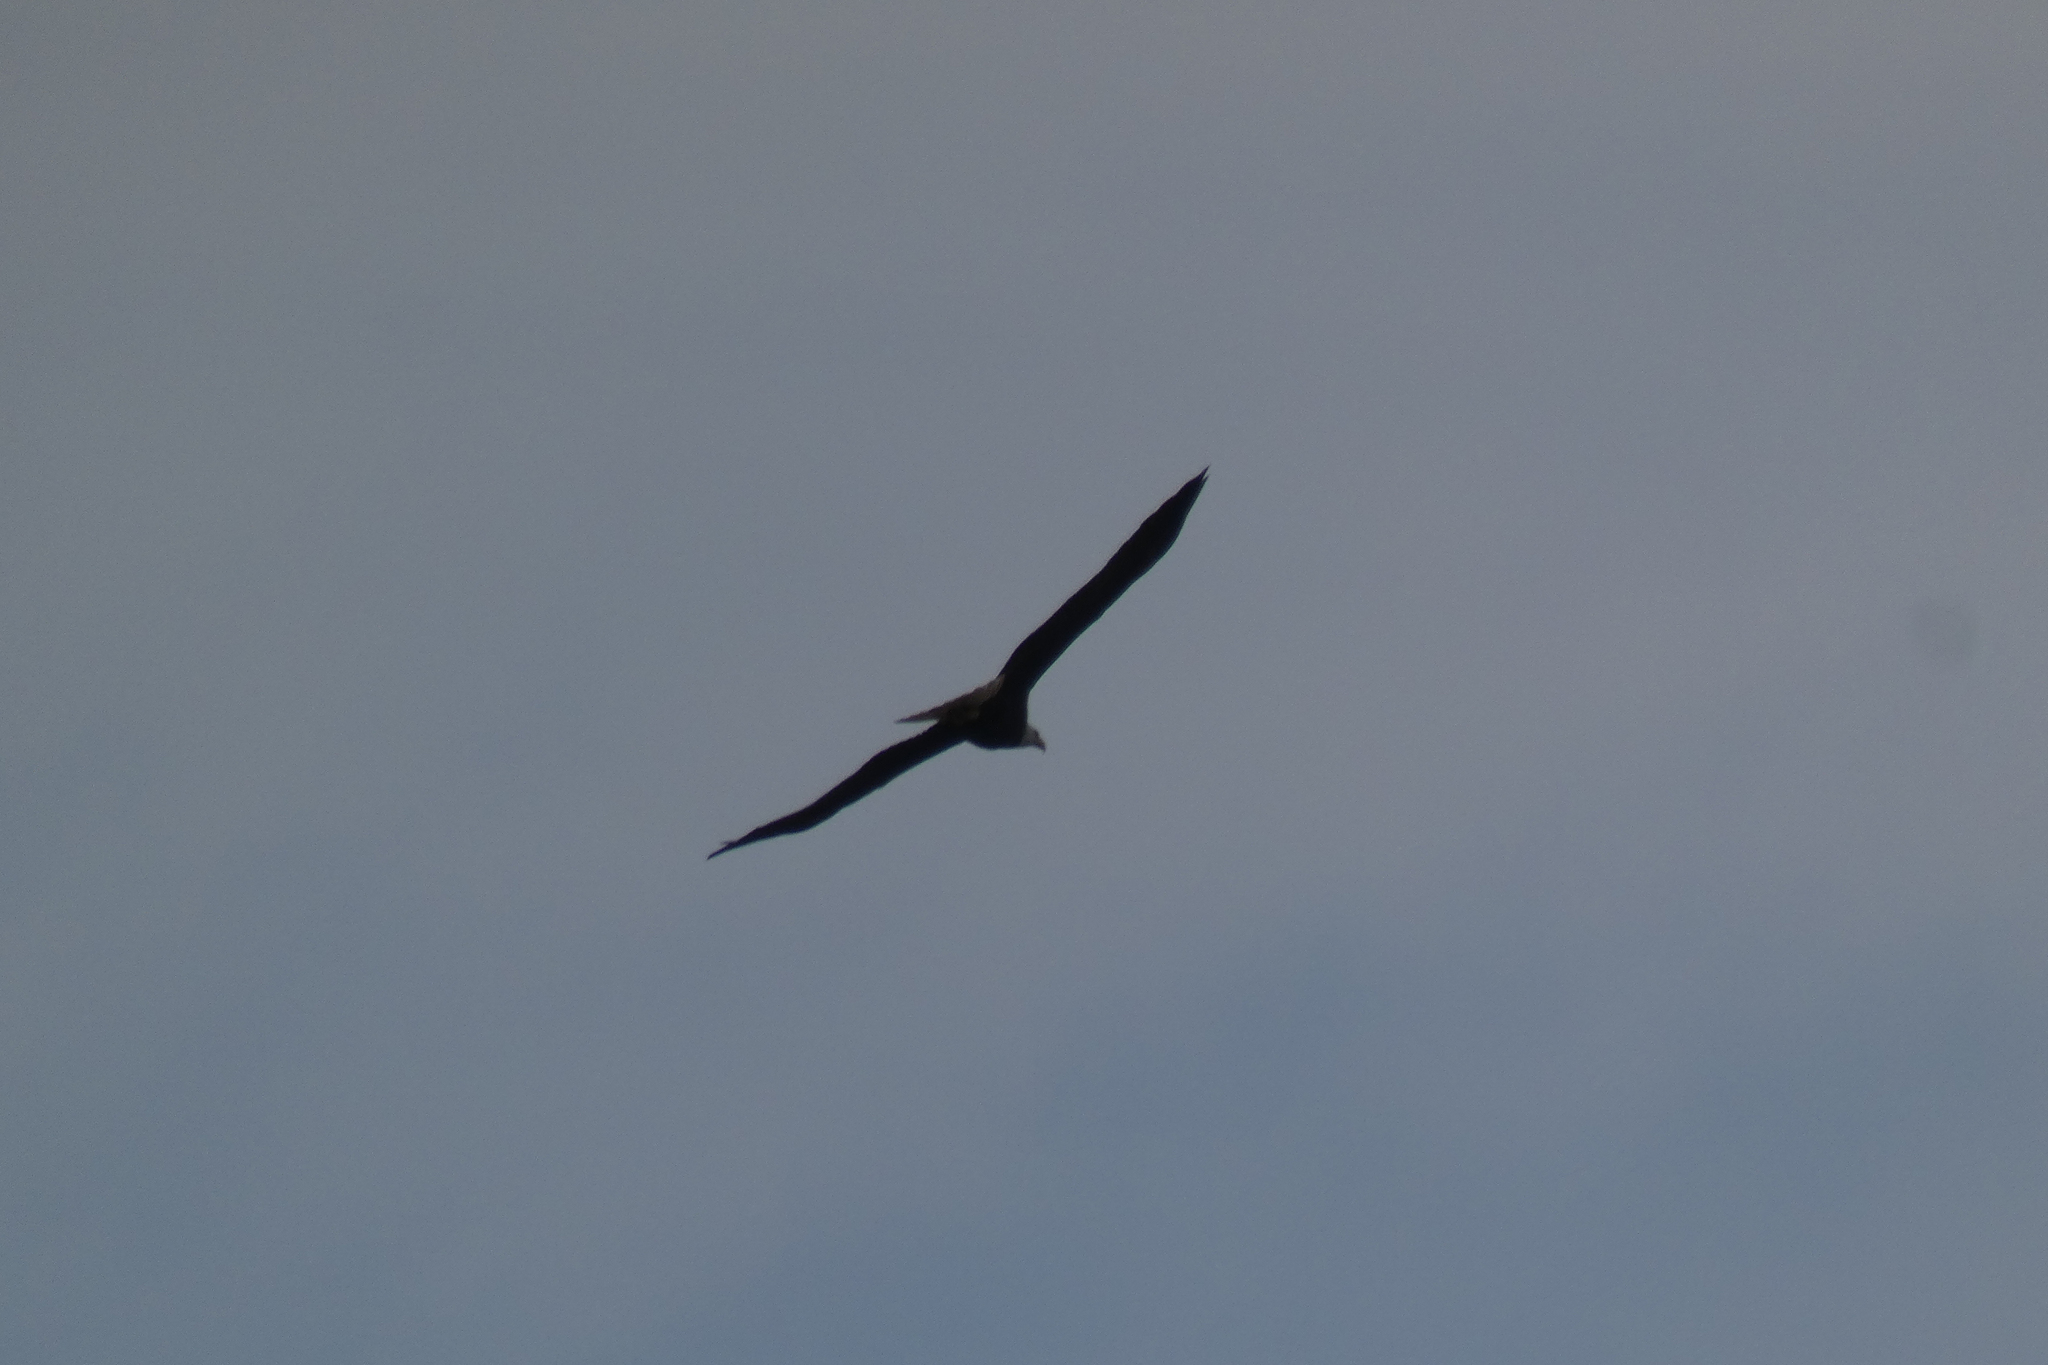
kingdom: Animalia
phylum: Chordata
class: Aves
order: Accipitriformes
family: Accipitridae
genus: Haliaeetus
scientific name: Haliaeetus leucocephalus
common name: Bald eagle
